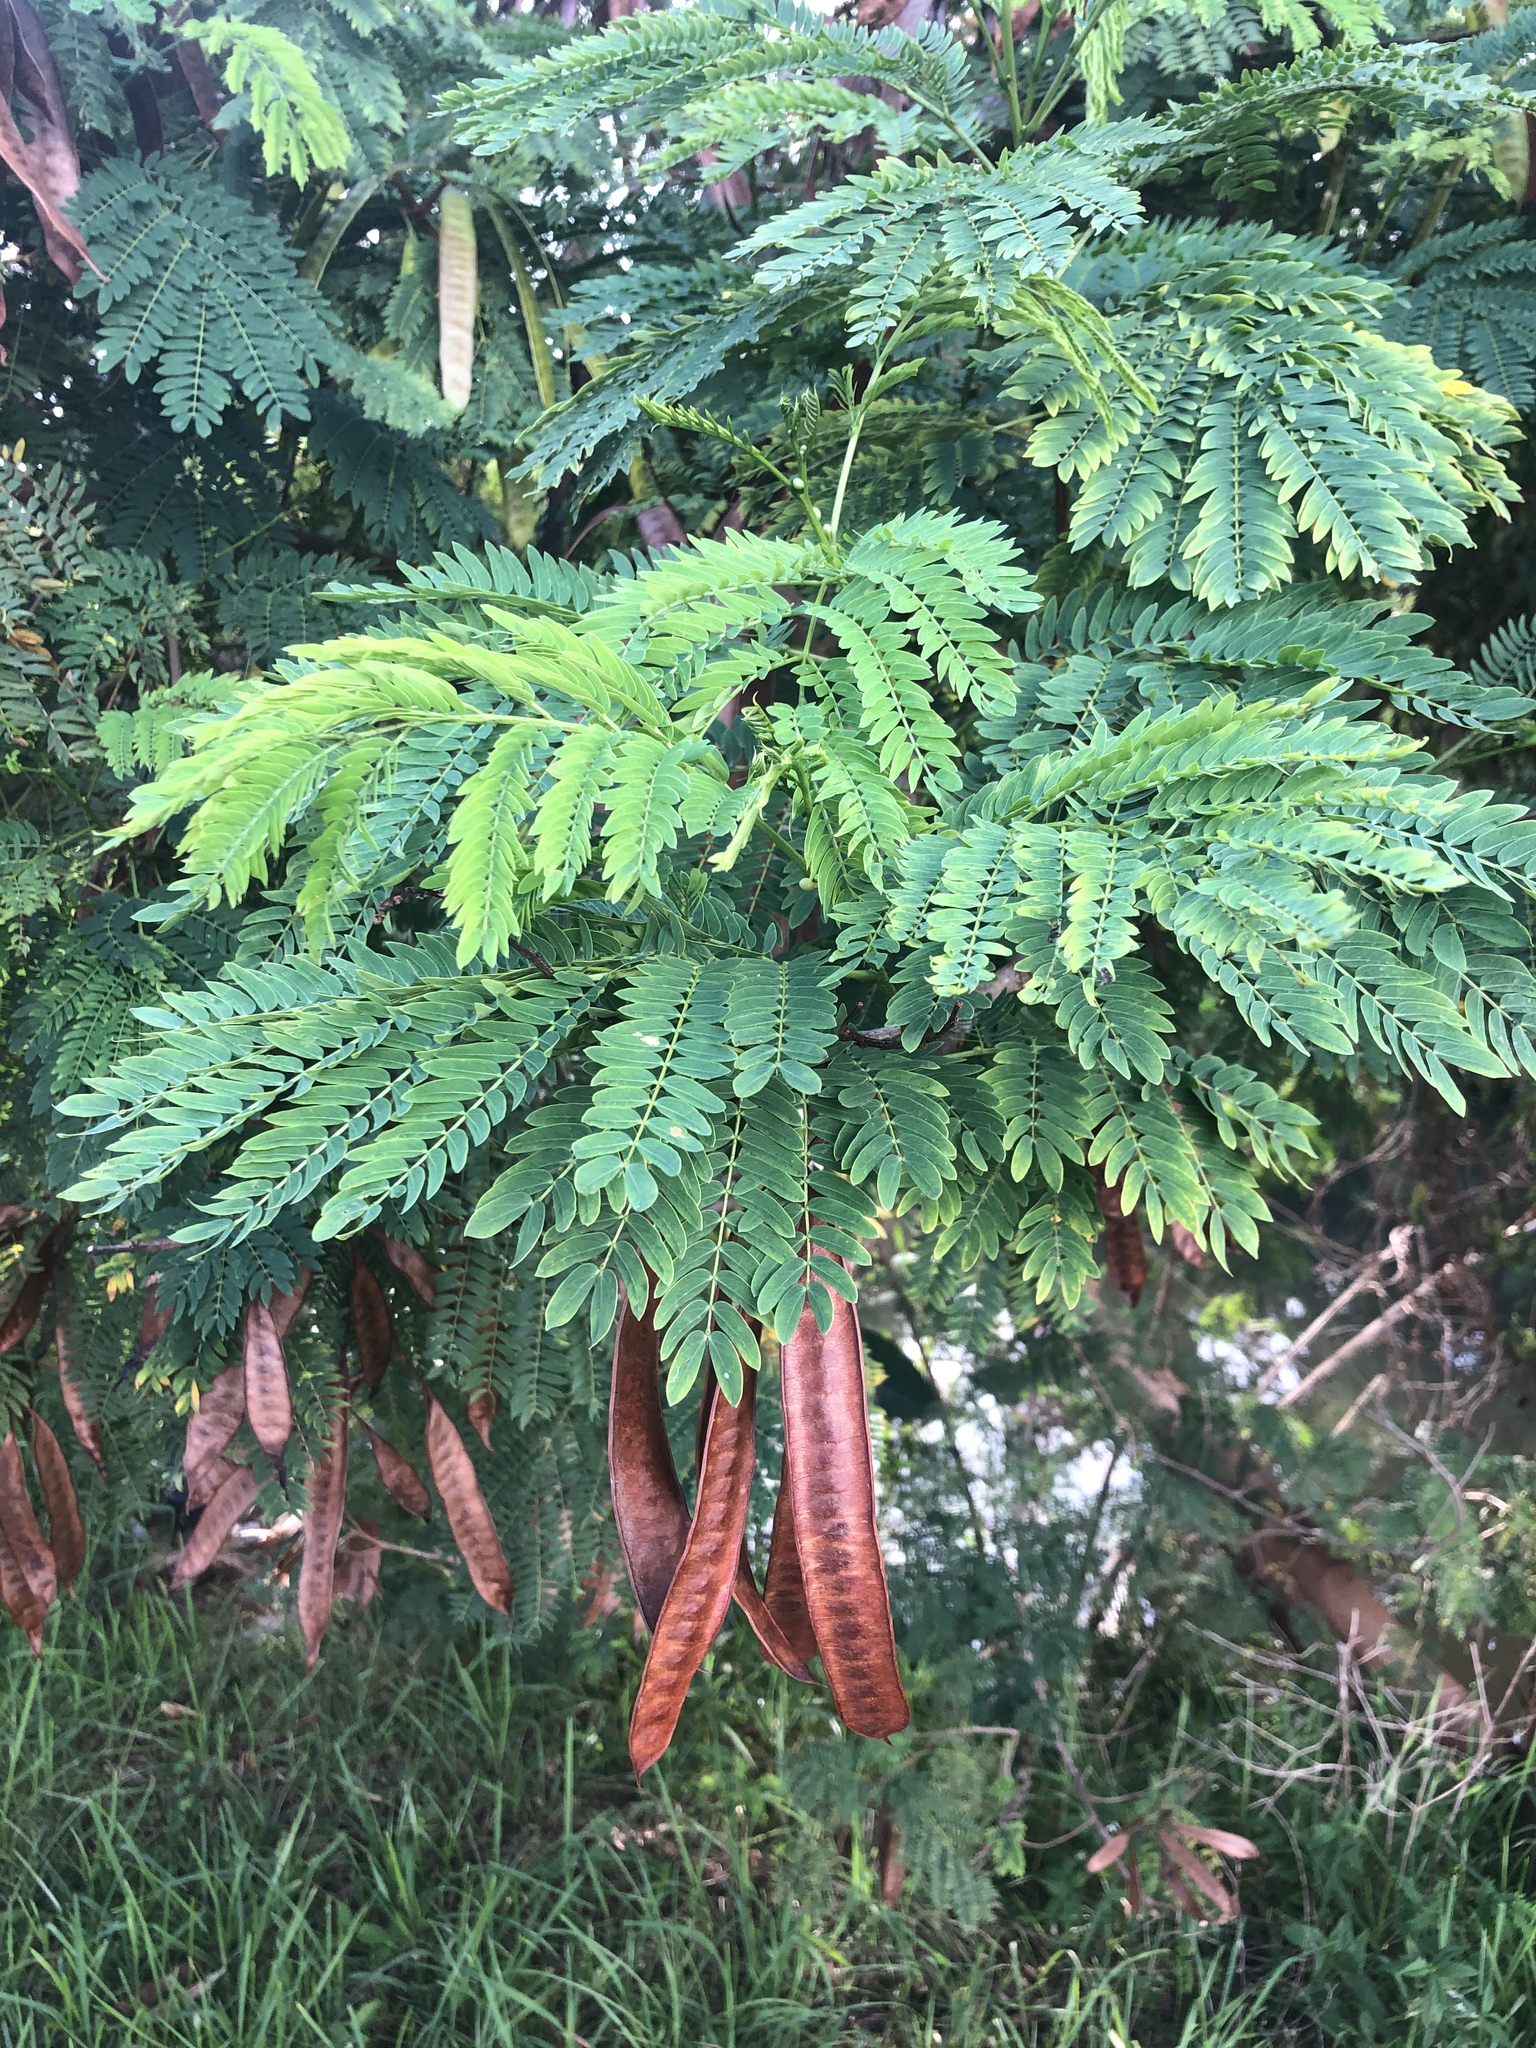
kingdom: Plantae
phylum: Tracheophyta
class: Magnoliopsida
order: Fabales
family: Fabaceae
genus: Leucaena
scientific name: Leucaena leucocephala
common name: White leadtree
